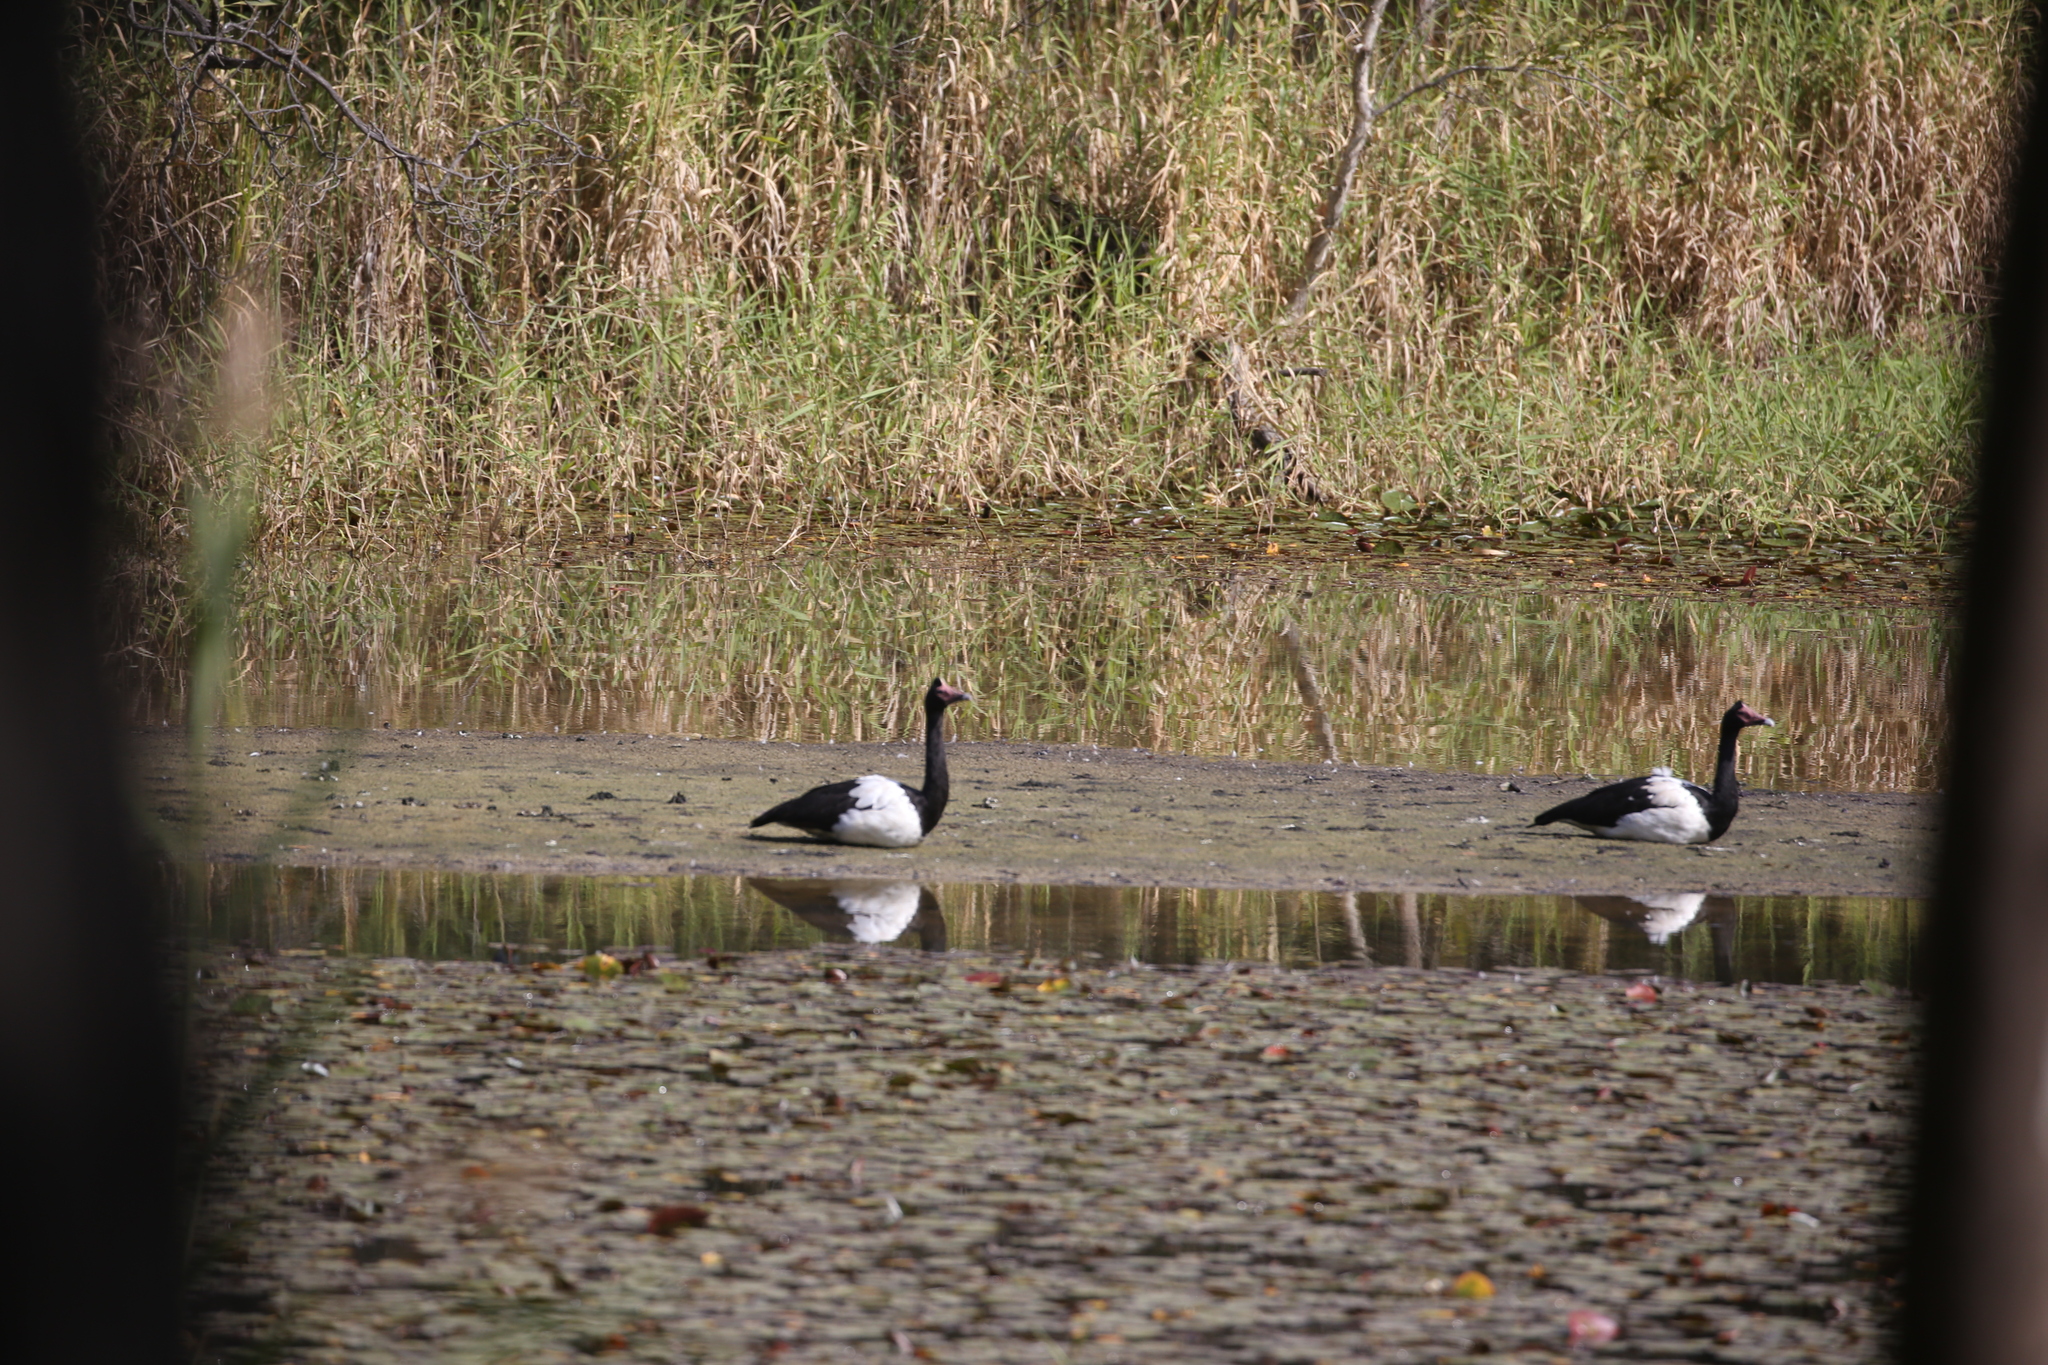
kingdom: Animalia
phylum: Chordata
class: Aves
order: Anseriformes
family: Anseranatidae
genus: Anseranas
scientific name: Anseranas semipalmata
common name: Magpie goose
